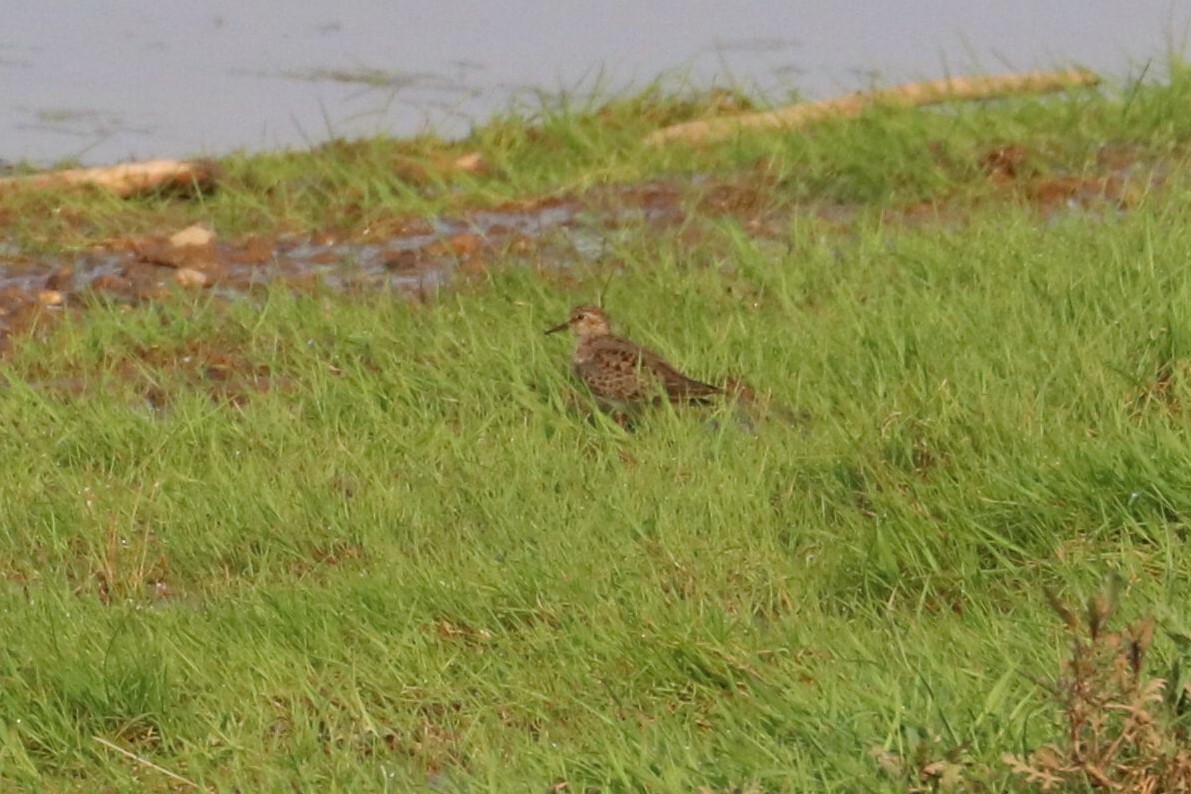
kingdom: Animalia
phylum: Chordata
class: Aves
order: Charadriiformes
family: Scolopacidae
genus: Calidris
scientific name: Calidris temminckii
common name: Temminck's stint
